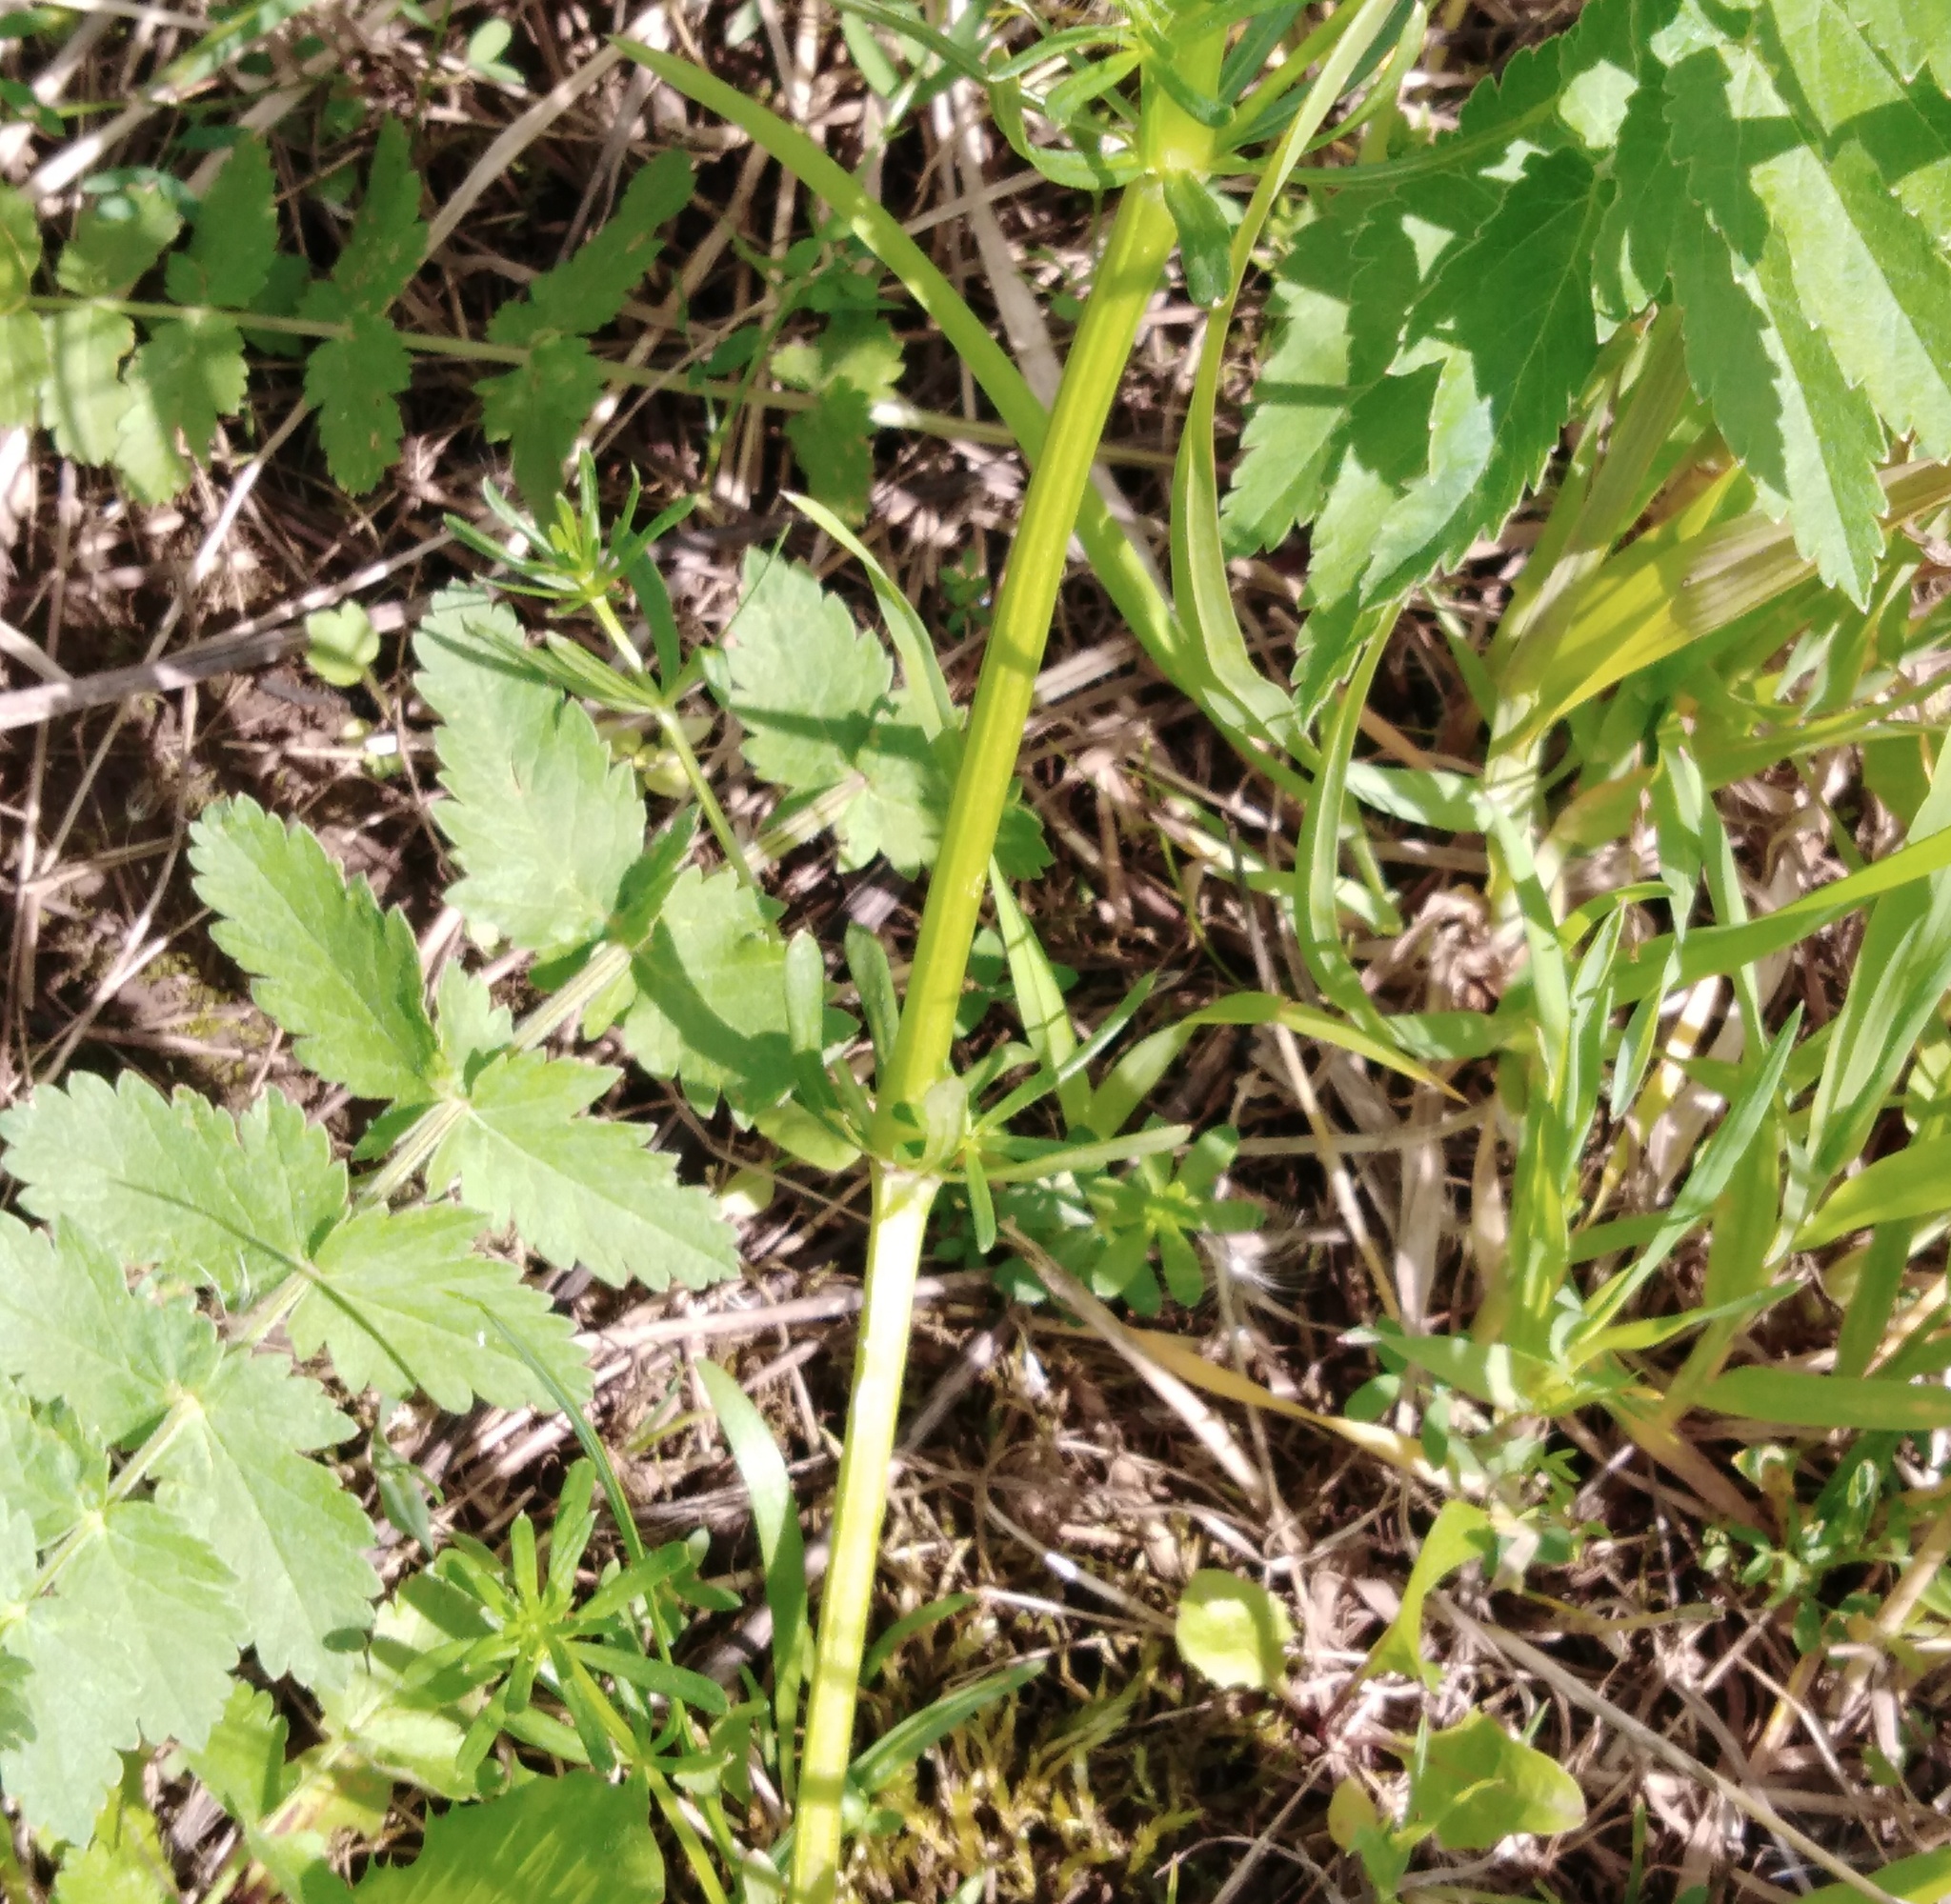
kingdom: Plantae
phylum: Tracheophyta
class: Magnoliopsida
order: Apiales
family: Apiaceae
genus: Pimpinella
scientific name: Pimpinella saxifraga
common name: Burnet-saxifrage
